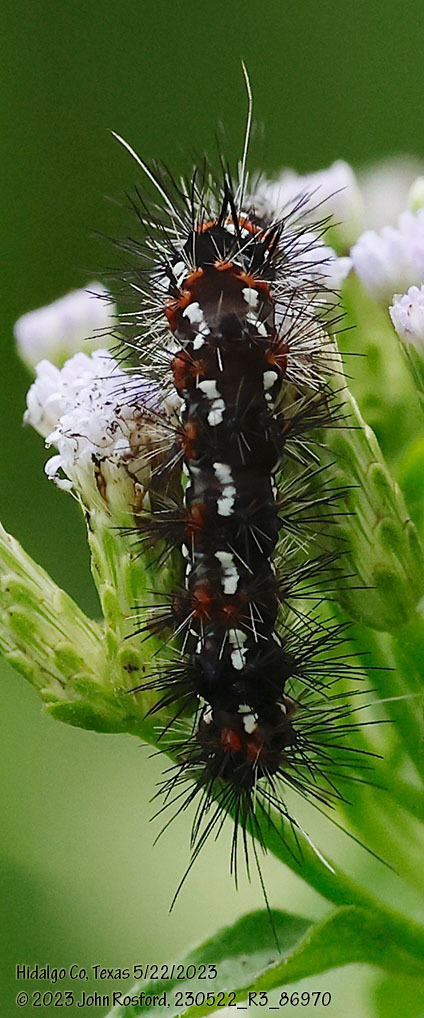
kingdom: Animalia
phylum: Arthropoda
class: Insecta
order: Lepidoptera
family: Erebidae
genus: Pareuchaetes
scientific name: Pareuchaetes insulata
